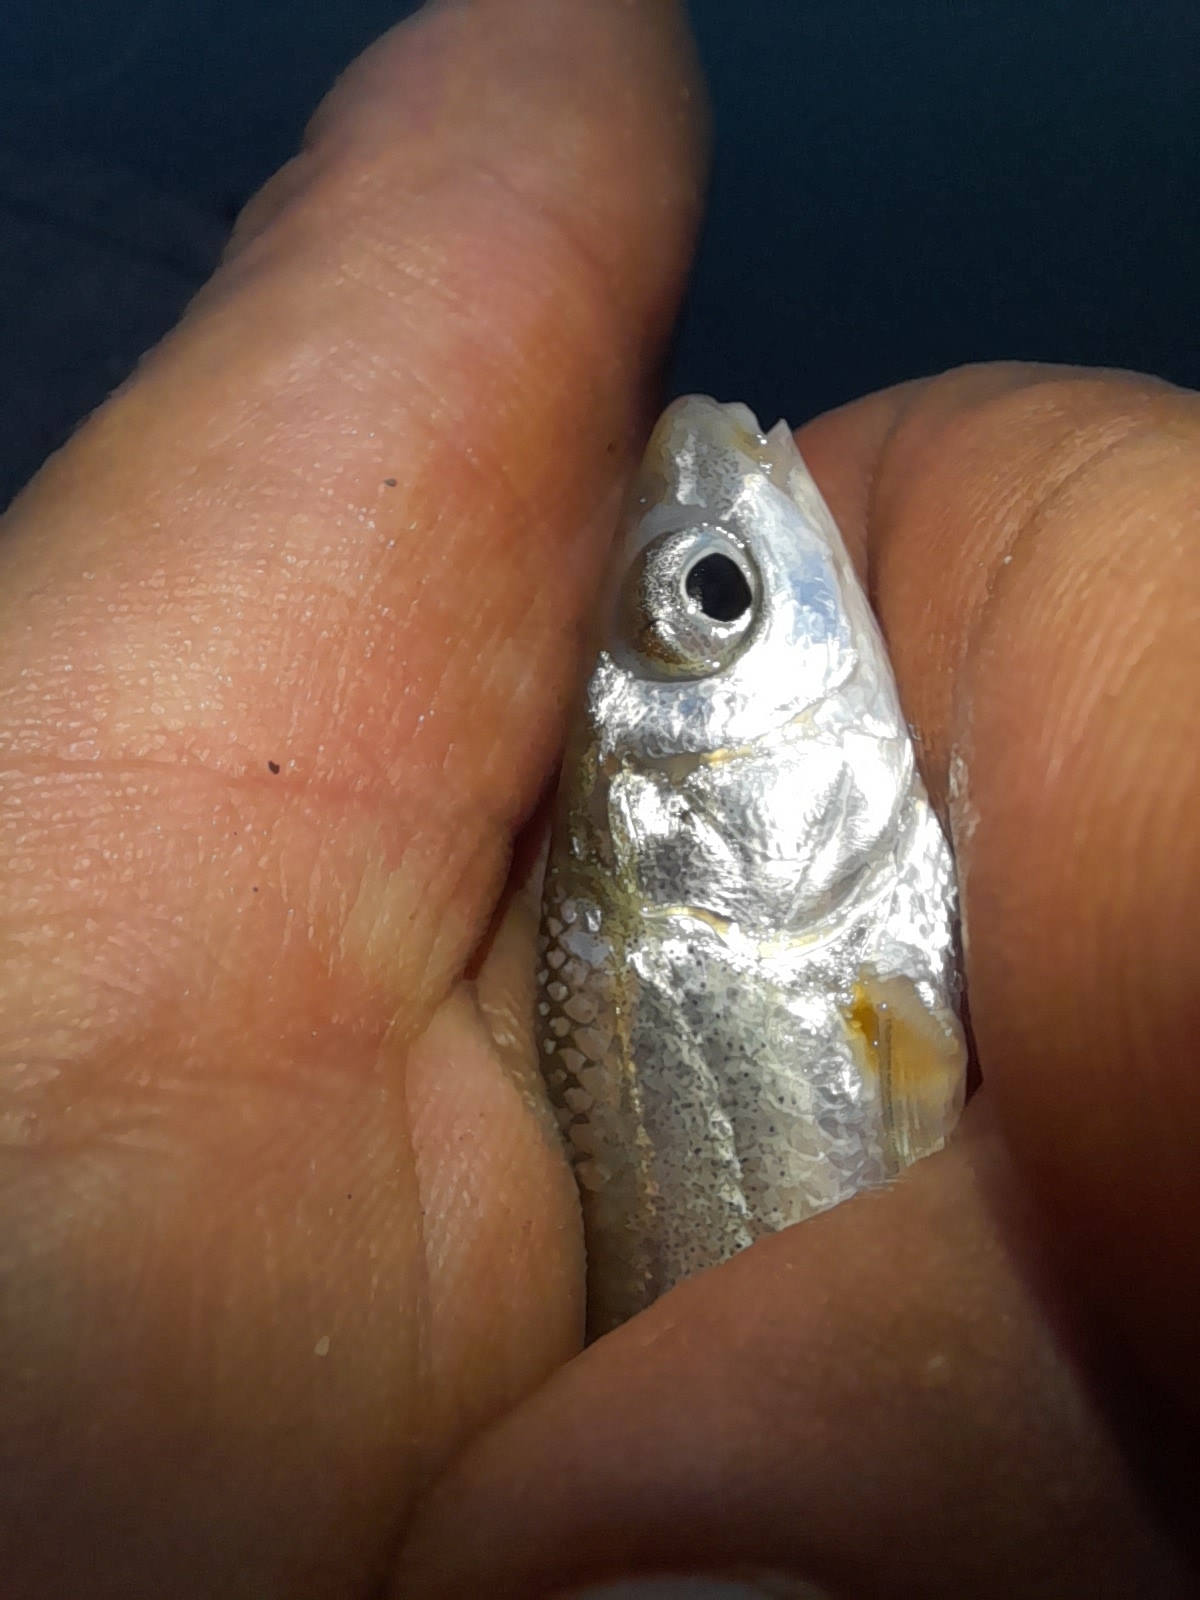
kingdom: Animalia
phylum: Chordata
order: Cypriniformes
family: Cyprinidae
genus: Protochondrostoma
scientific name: Protochondrostoma genei
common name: South european nase
